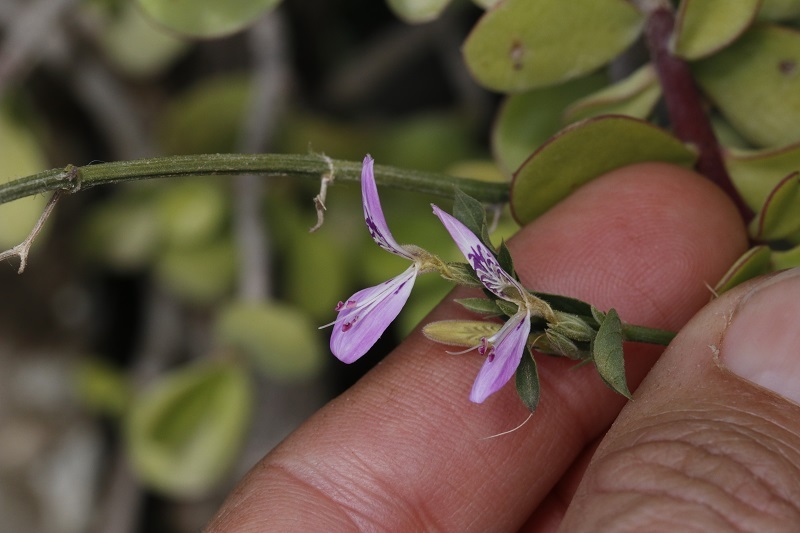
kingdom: Plantae
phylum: Tracheophyta
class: Magnoliopsida
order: Lamiales
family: Acanthaceae
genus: Dicliptera
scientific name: Dicliptera cernua
